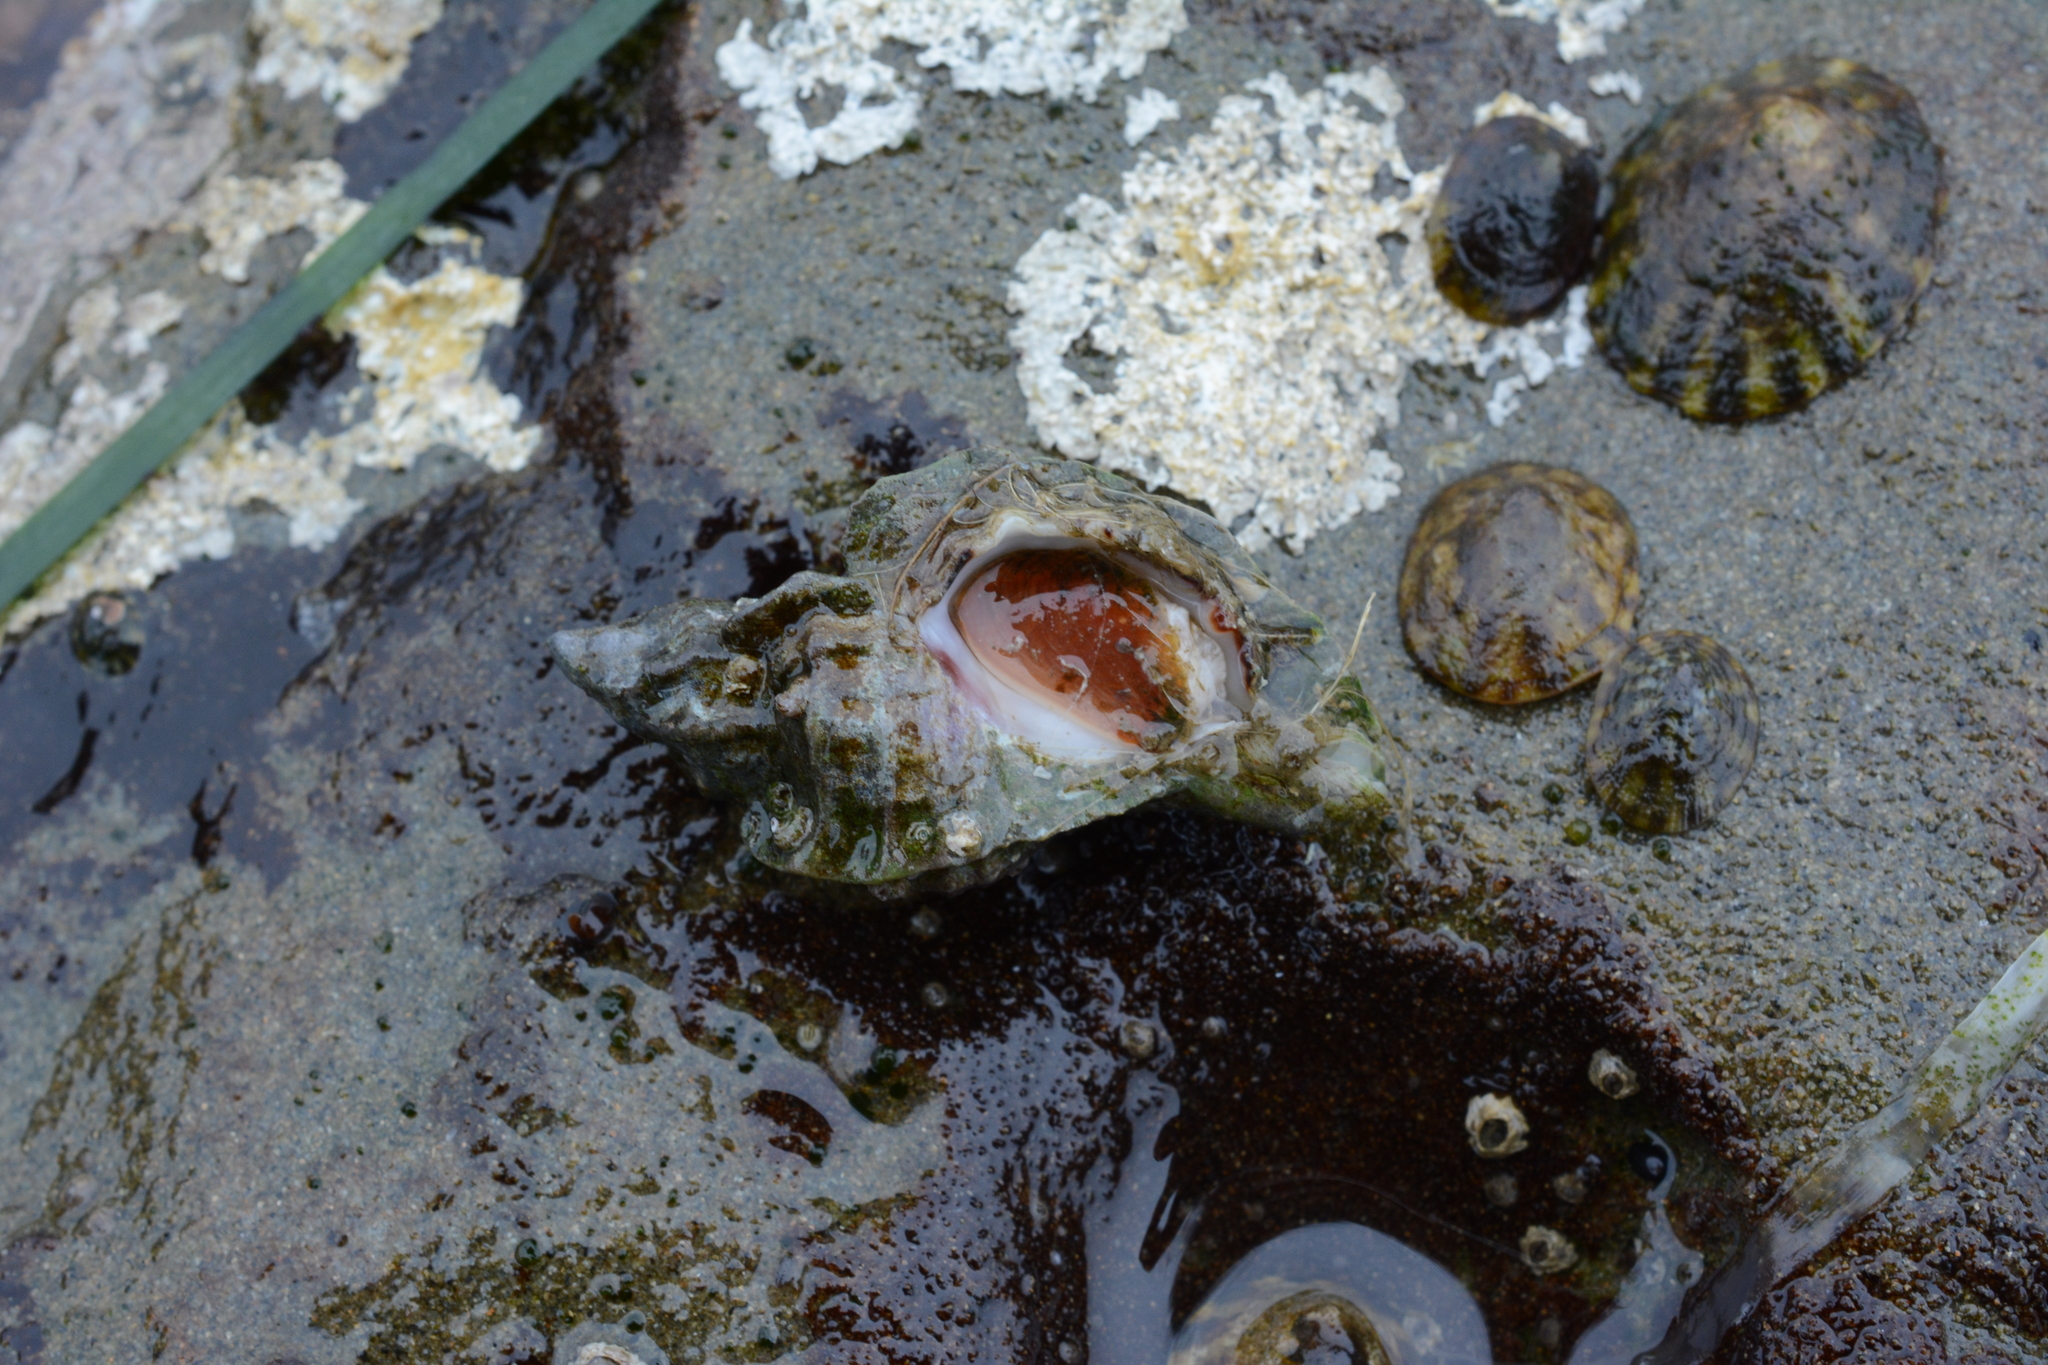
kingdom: Animalia
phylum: Mollusca
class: Gastropoda
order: Neogastropoda
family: Muricidae
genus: Ceratostoma
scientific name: Ceratostoma foliatum
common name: Foliate thorn purpura
